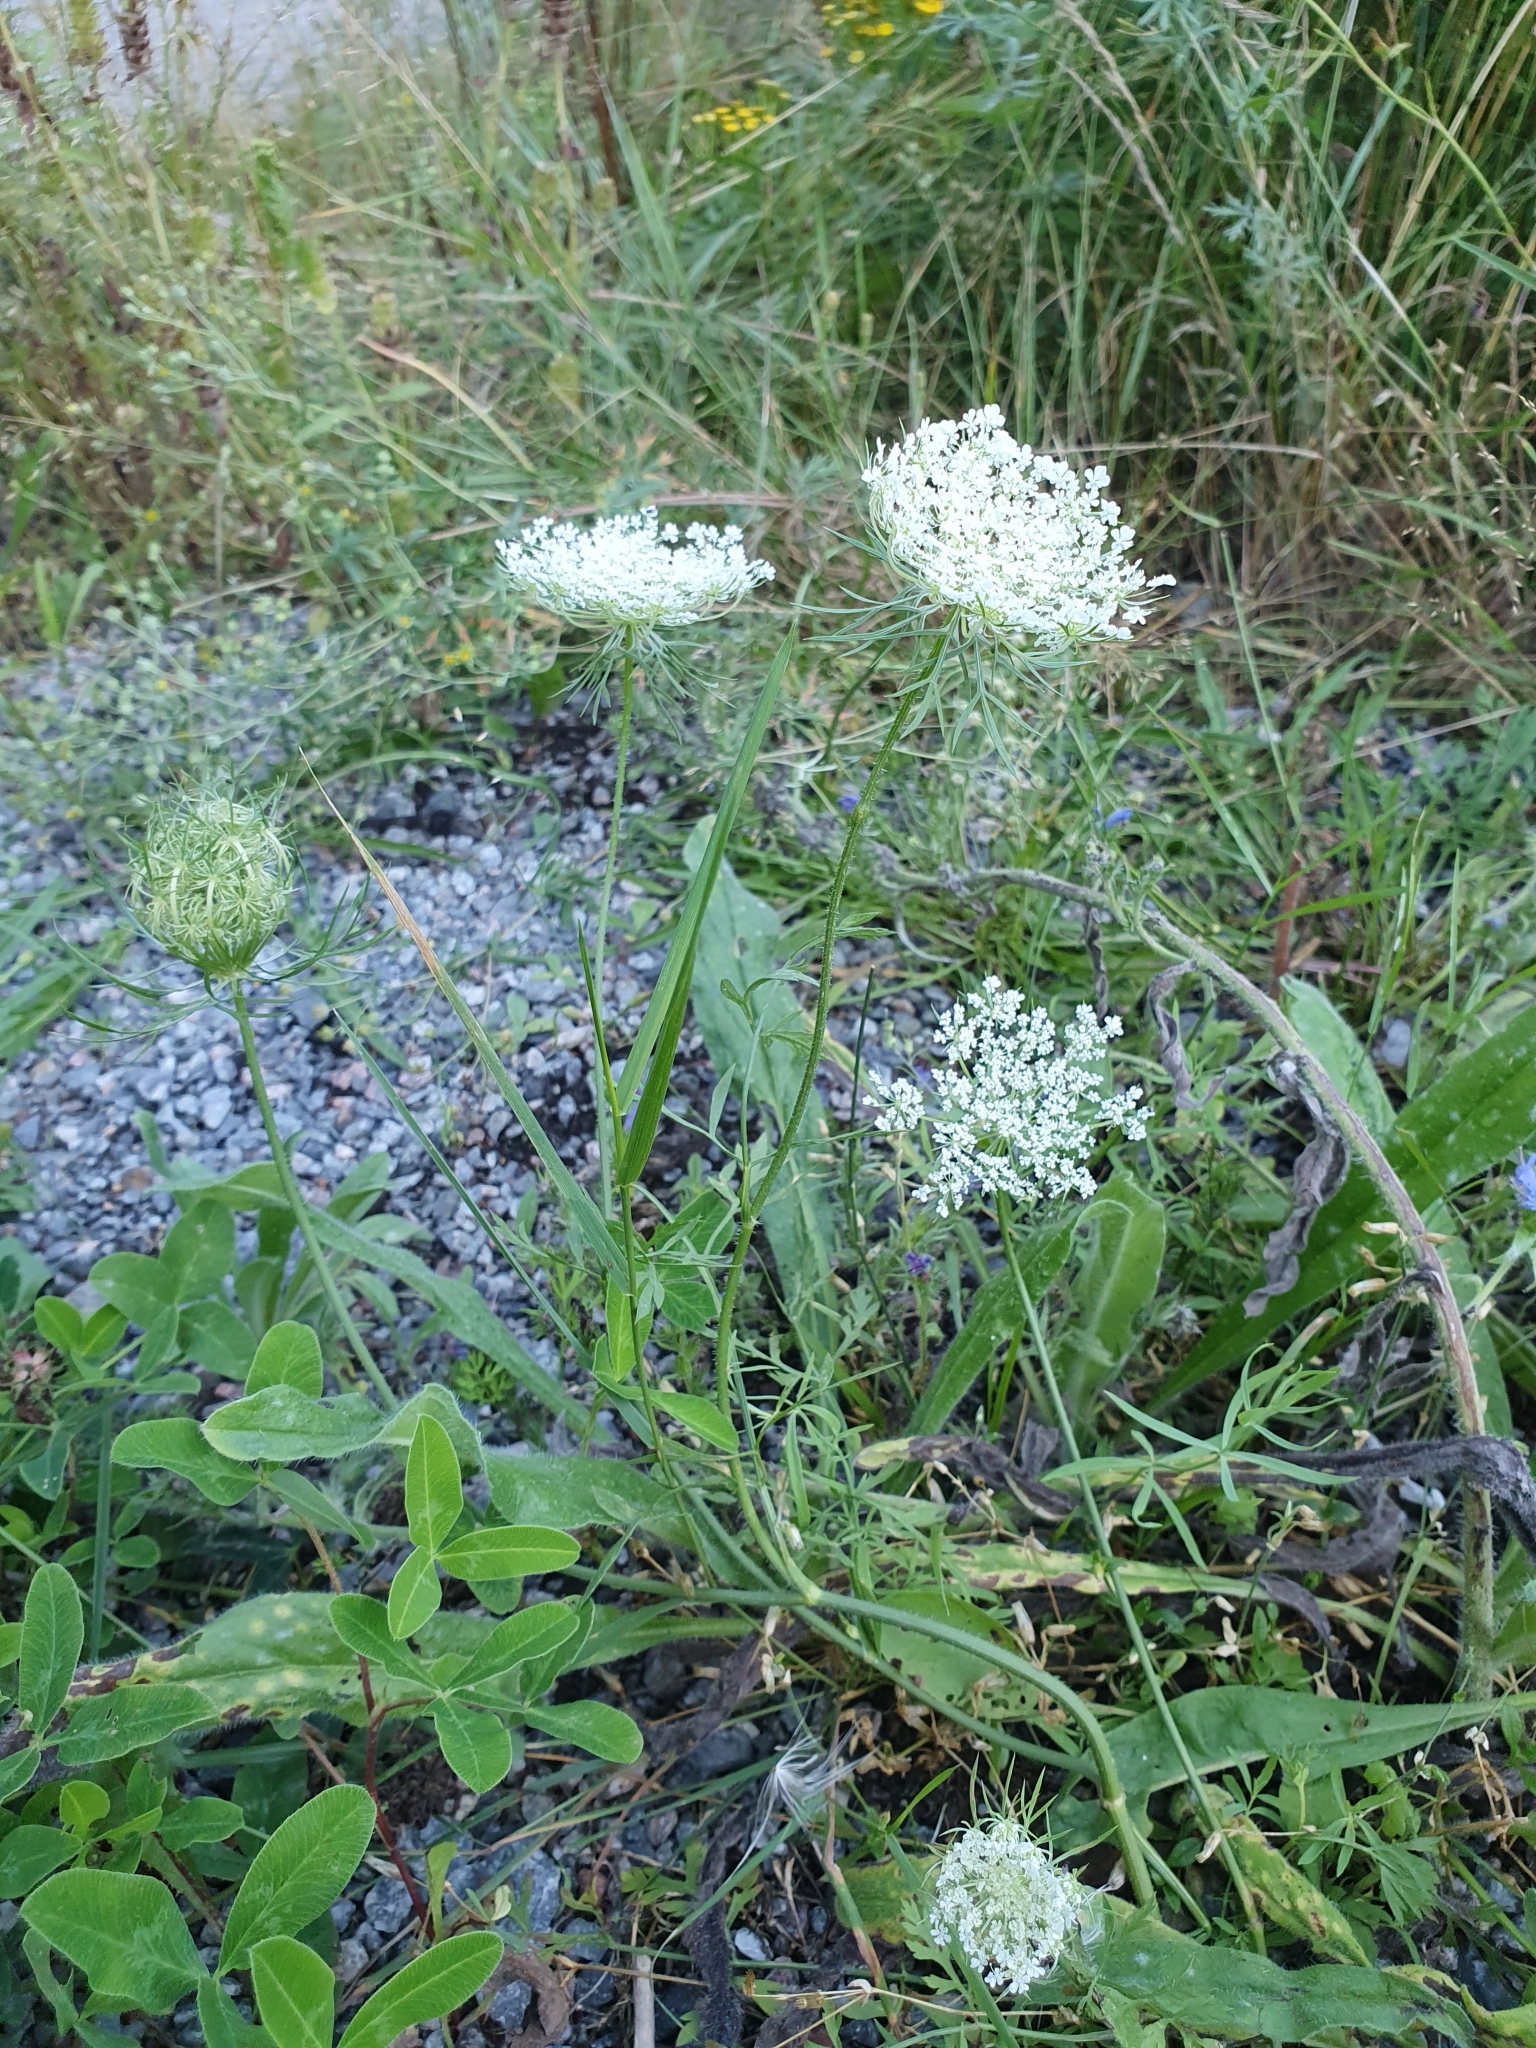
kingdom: Plantae
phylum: Tracheophyta
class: Magnoliopsida
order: Apiales
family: Apiaceae
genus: Daucus
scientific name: Daucus carota
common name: Wild carrot
